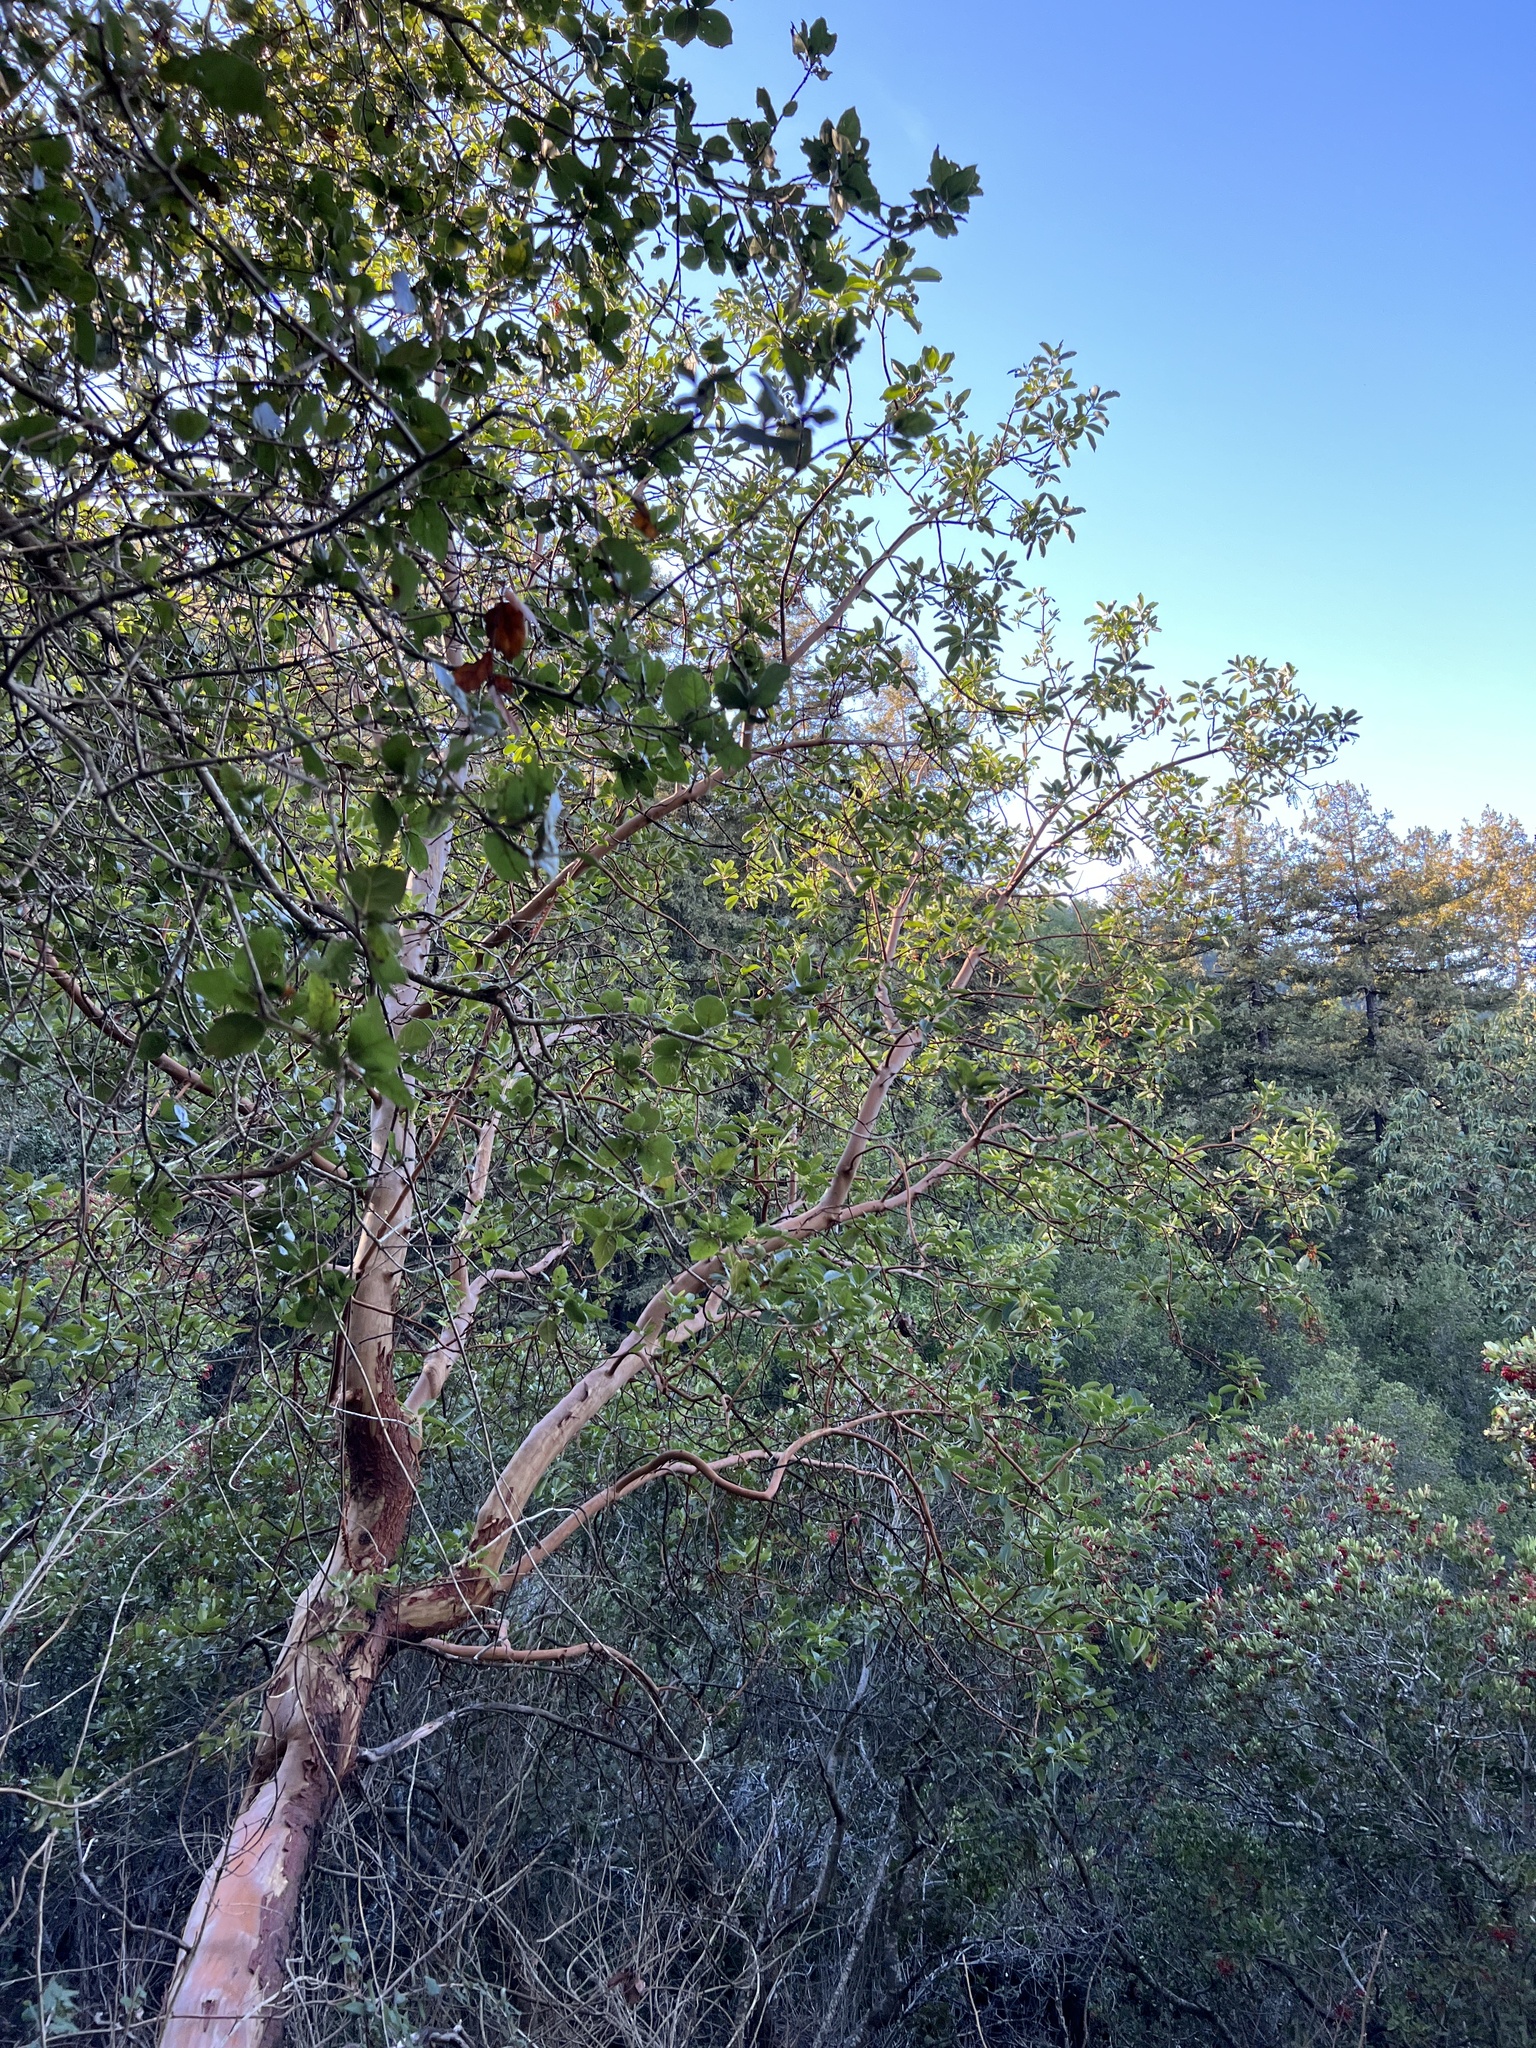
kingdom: Plantae
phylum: Tracheophyta
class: Magnoliopsida
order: Ericales
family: Ericaceae
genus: Arbutus
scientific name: Arbutus menziesii
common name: Pacific madrone
